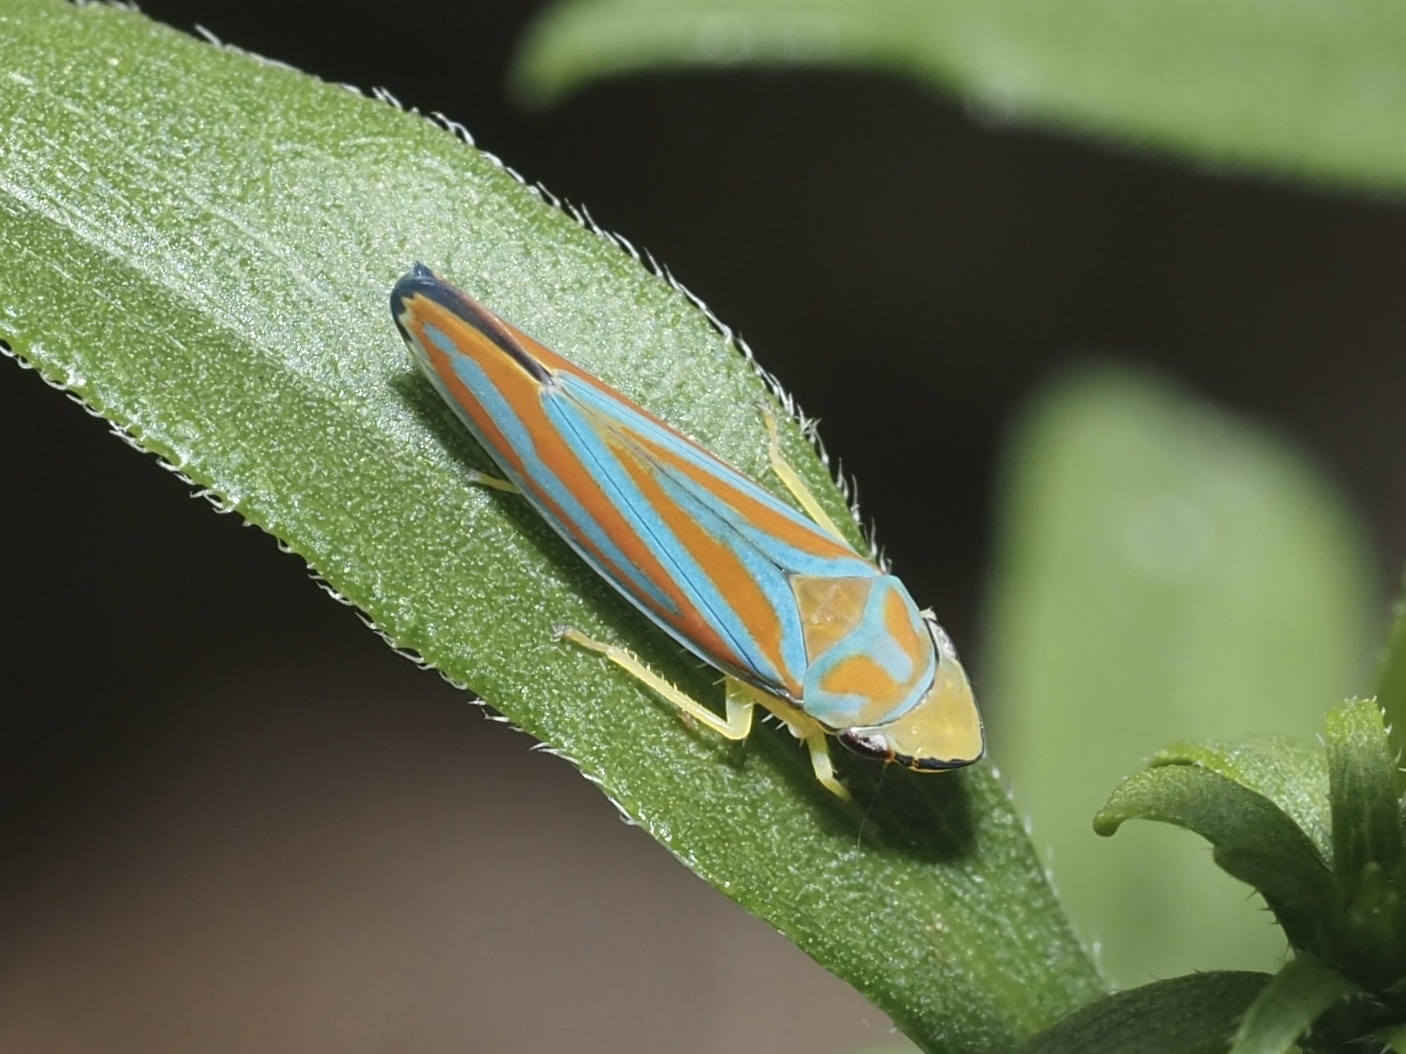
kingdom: Animalia
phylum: Arthropoda
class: Insecta
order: Hemiptera
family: Cicadellidae
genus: Graphocephala
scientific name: Graphocephala coccinea
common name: Candy-striped leafhopper
